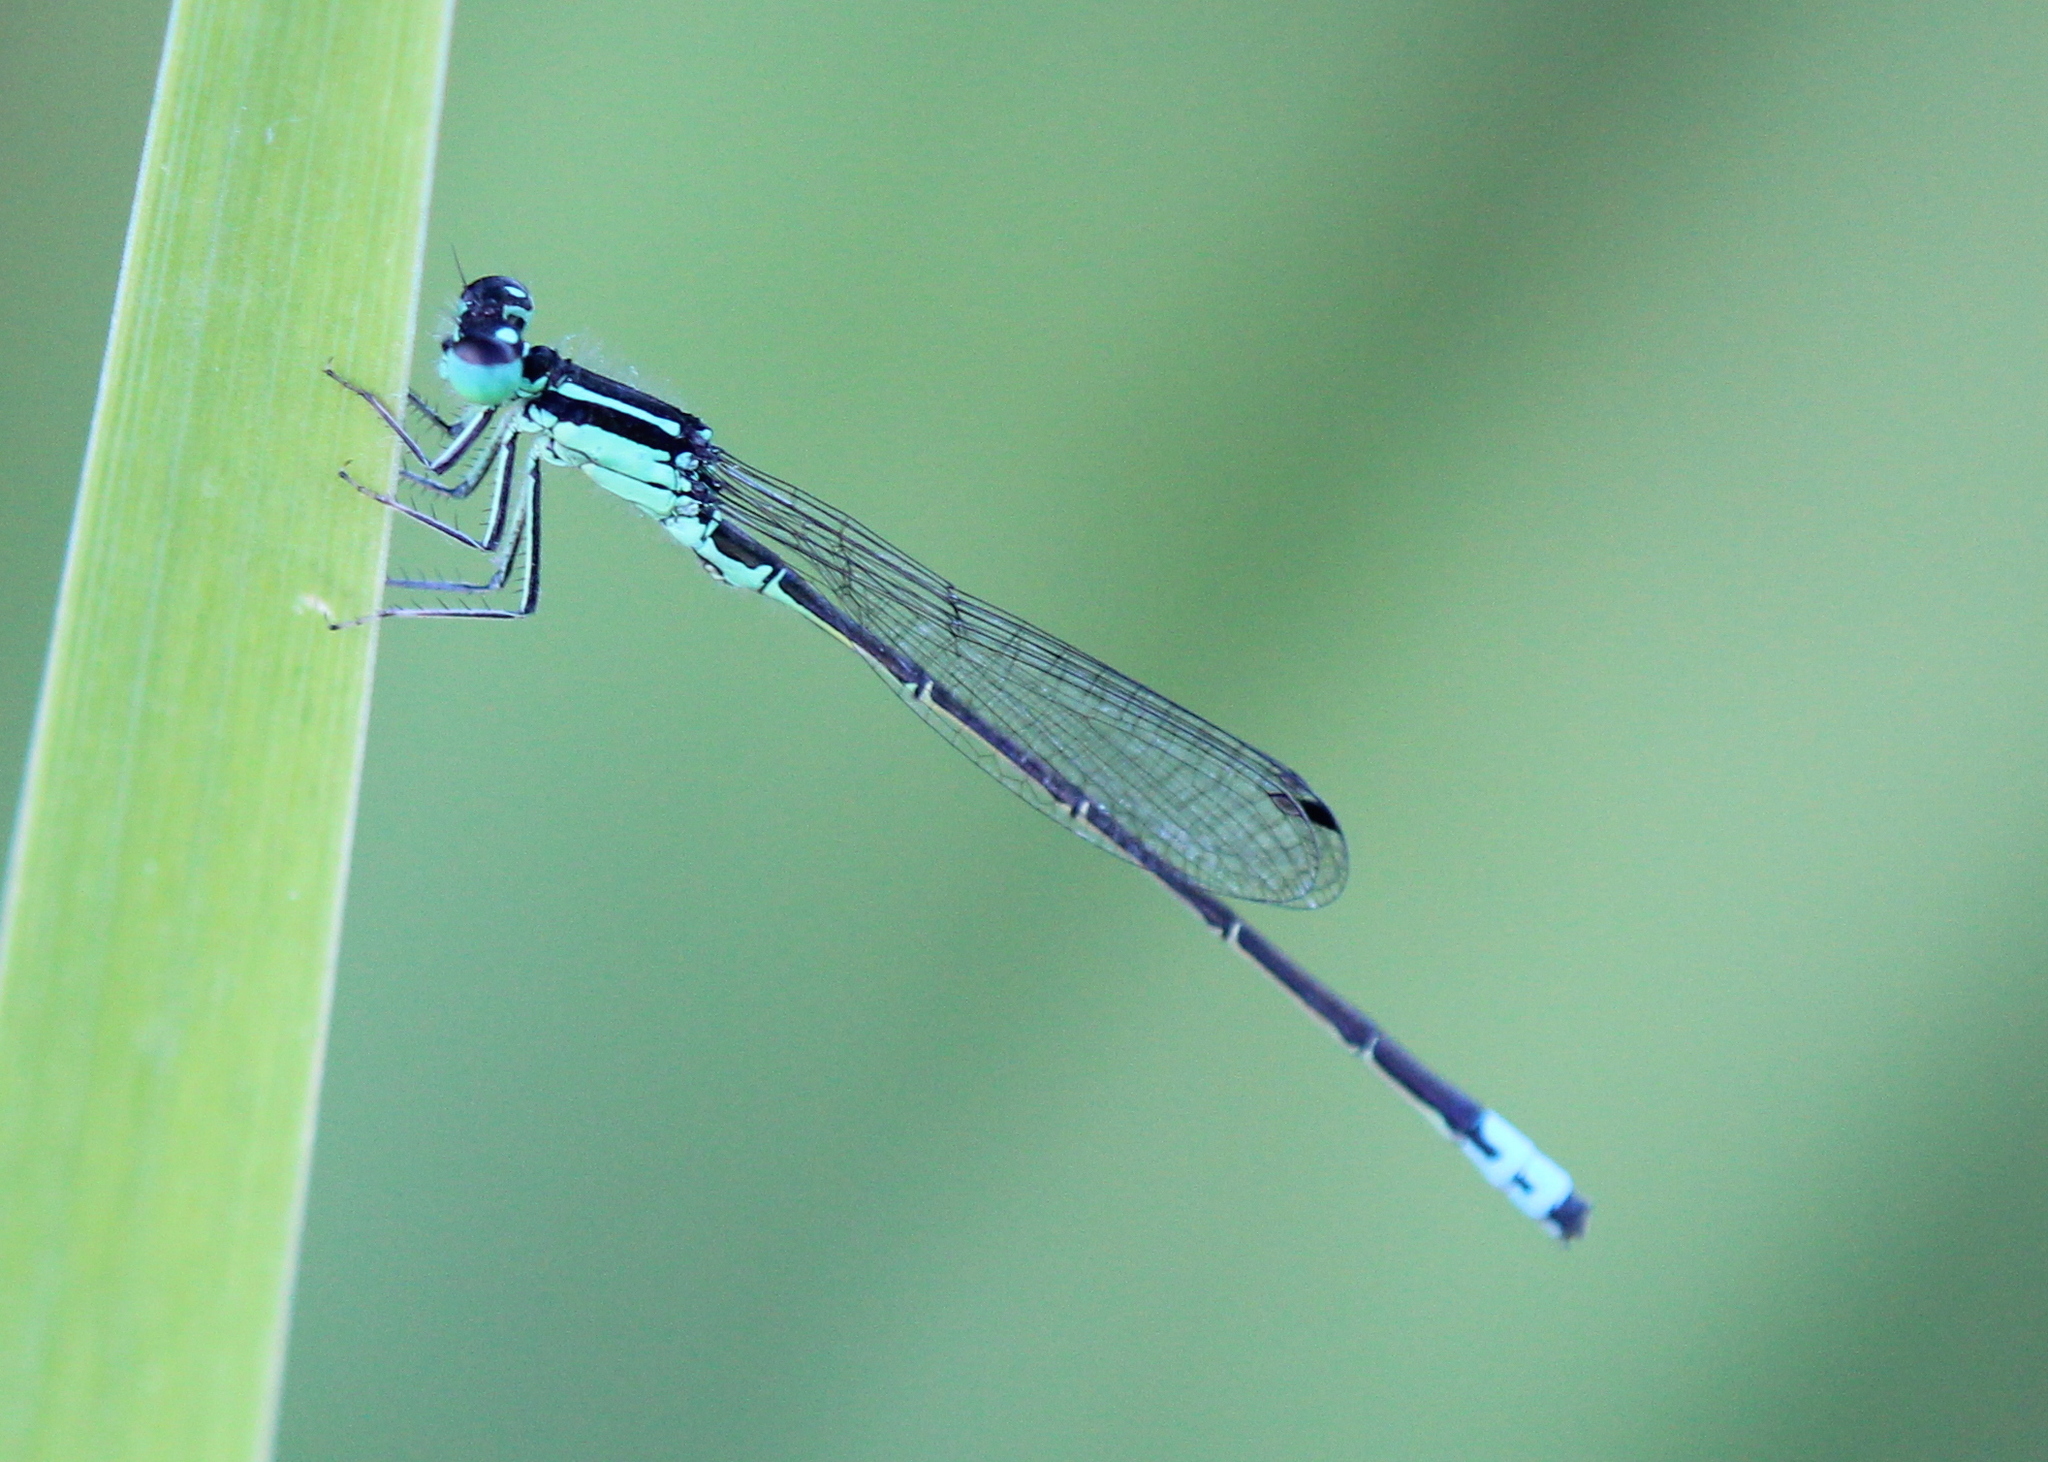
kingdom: Animalia
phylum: Arthropoda
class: Insecta
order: Odonata
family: Coenagrionidae
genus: Ischnura
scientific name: Ischnura verticalis
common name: Eastern forktail
